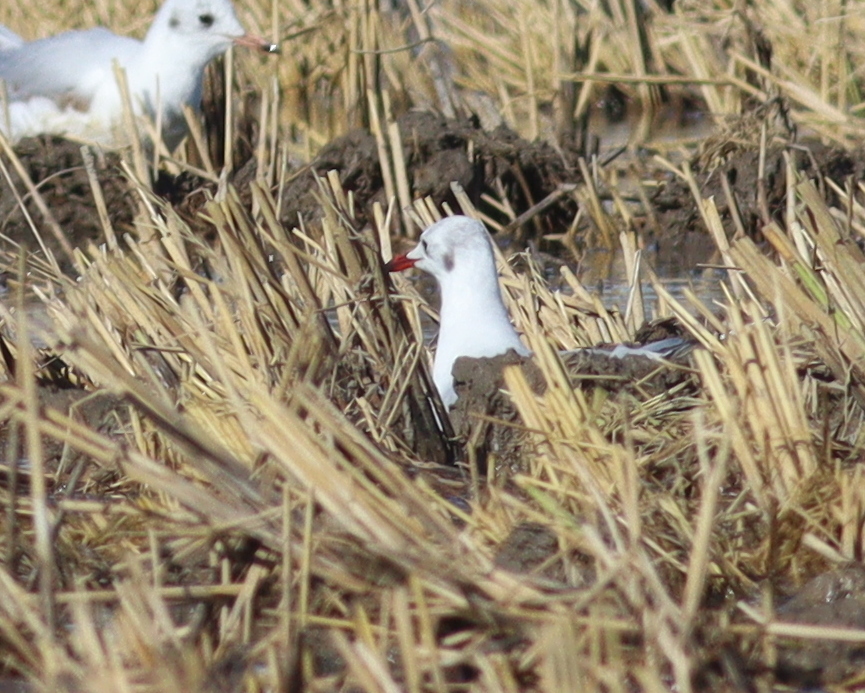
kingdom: Animalia
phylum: Chordata
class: Aves
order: Charadriiformes
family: Laridae
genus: Ichthyaetus
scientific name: Ichthyaetus melanocephalus
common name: Mediterranean gull
